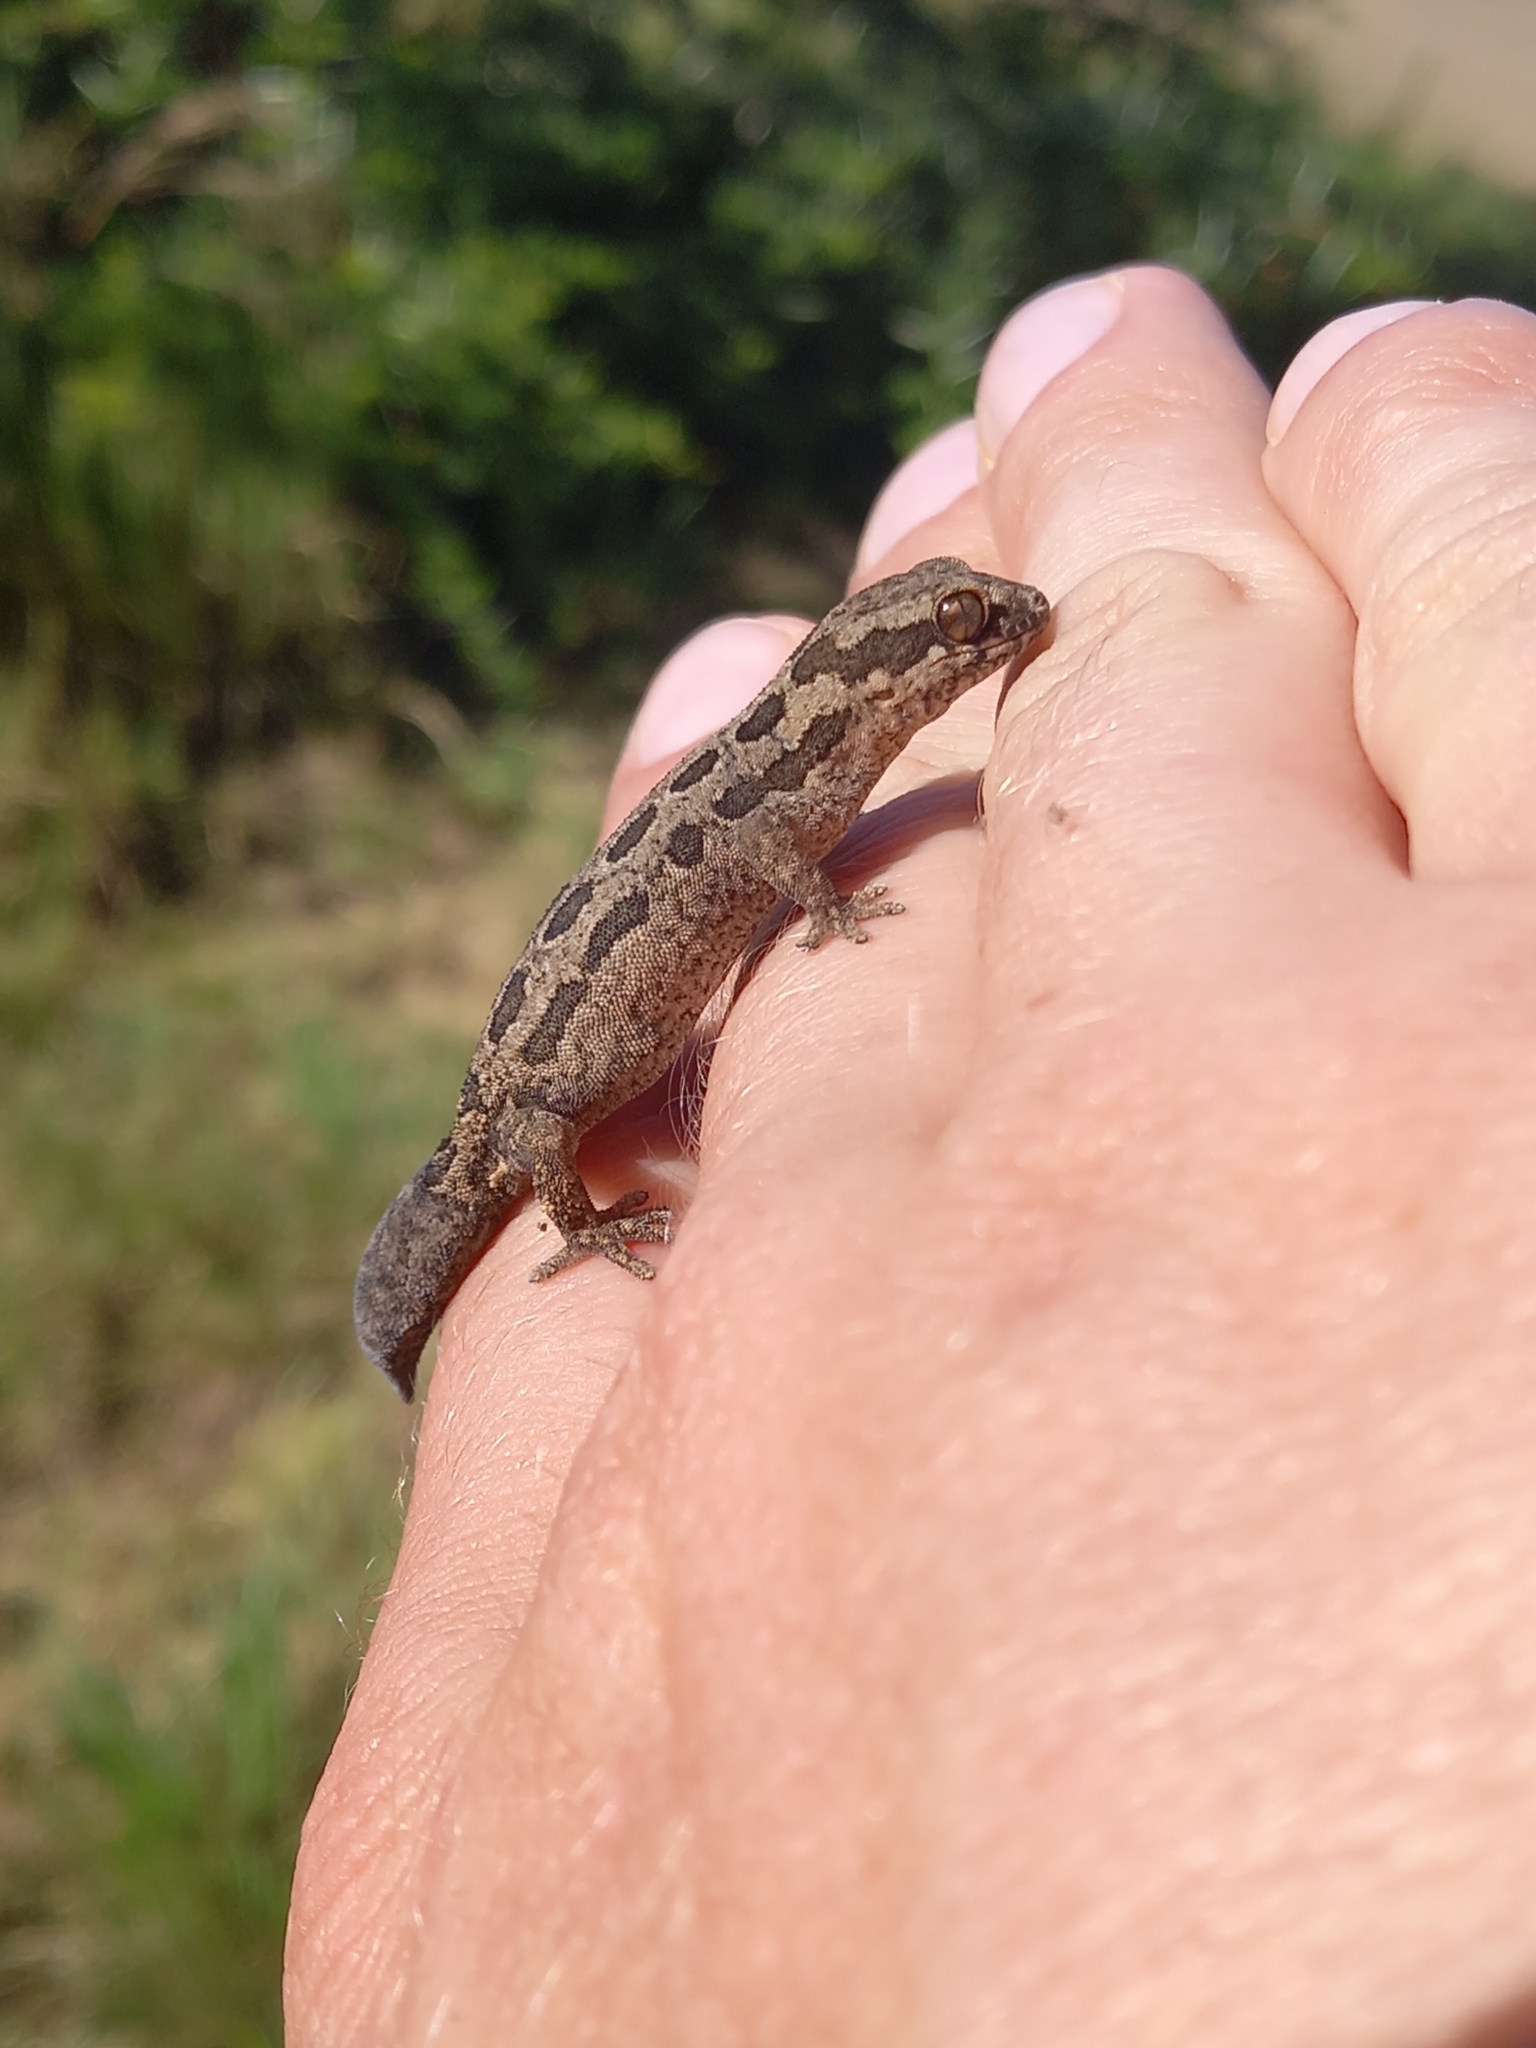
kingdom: Animalia
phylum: Chordata
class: Squamata
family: Gekkonidae
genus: Pachydactylus
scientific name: Pachydactylus maculatus
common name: Spotted thick-toed gecko
